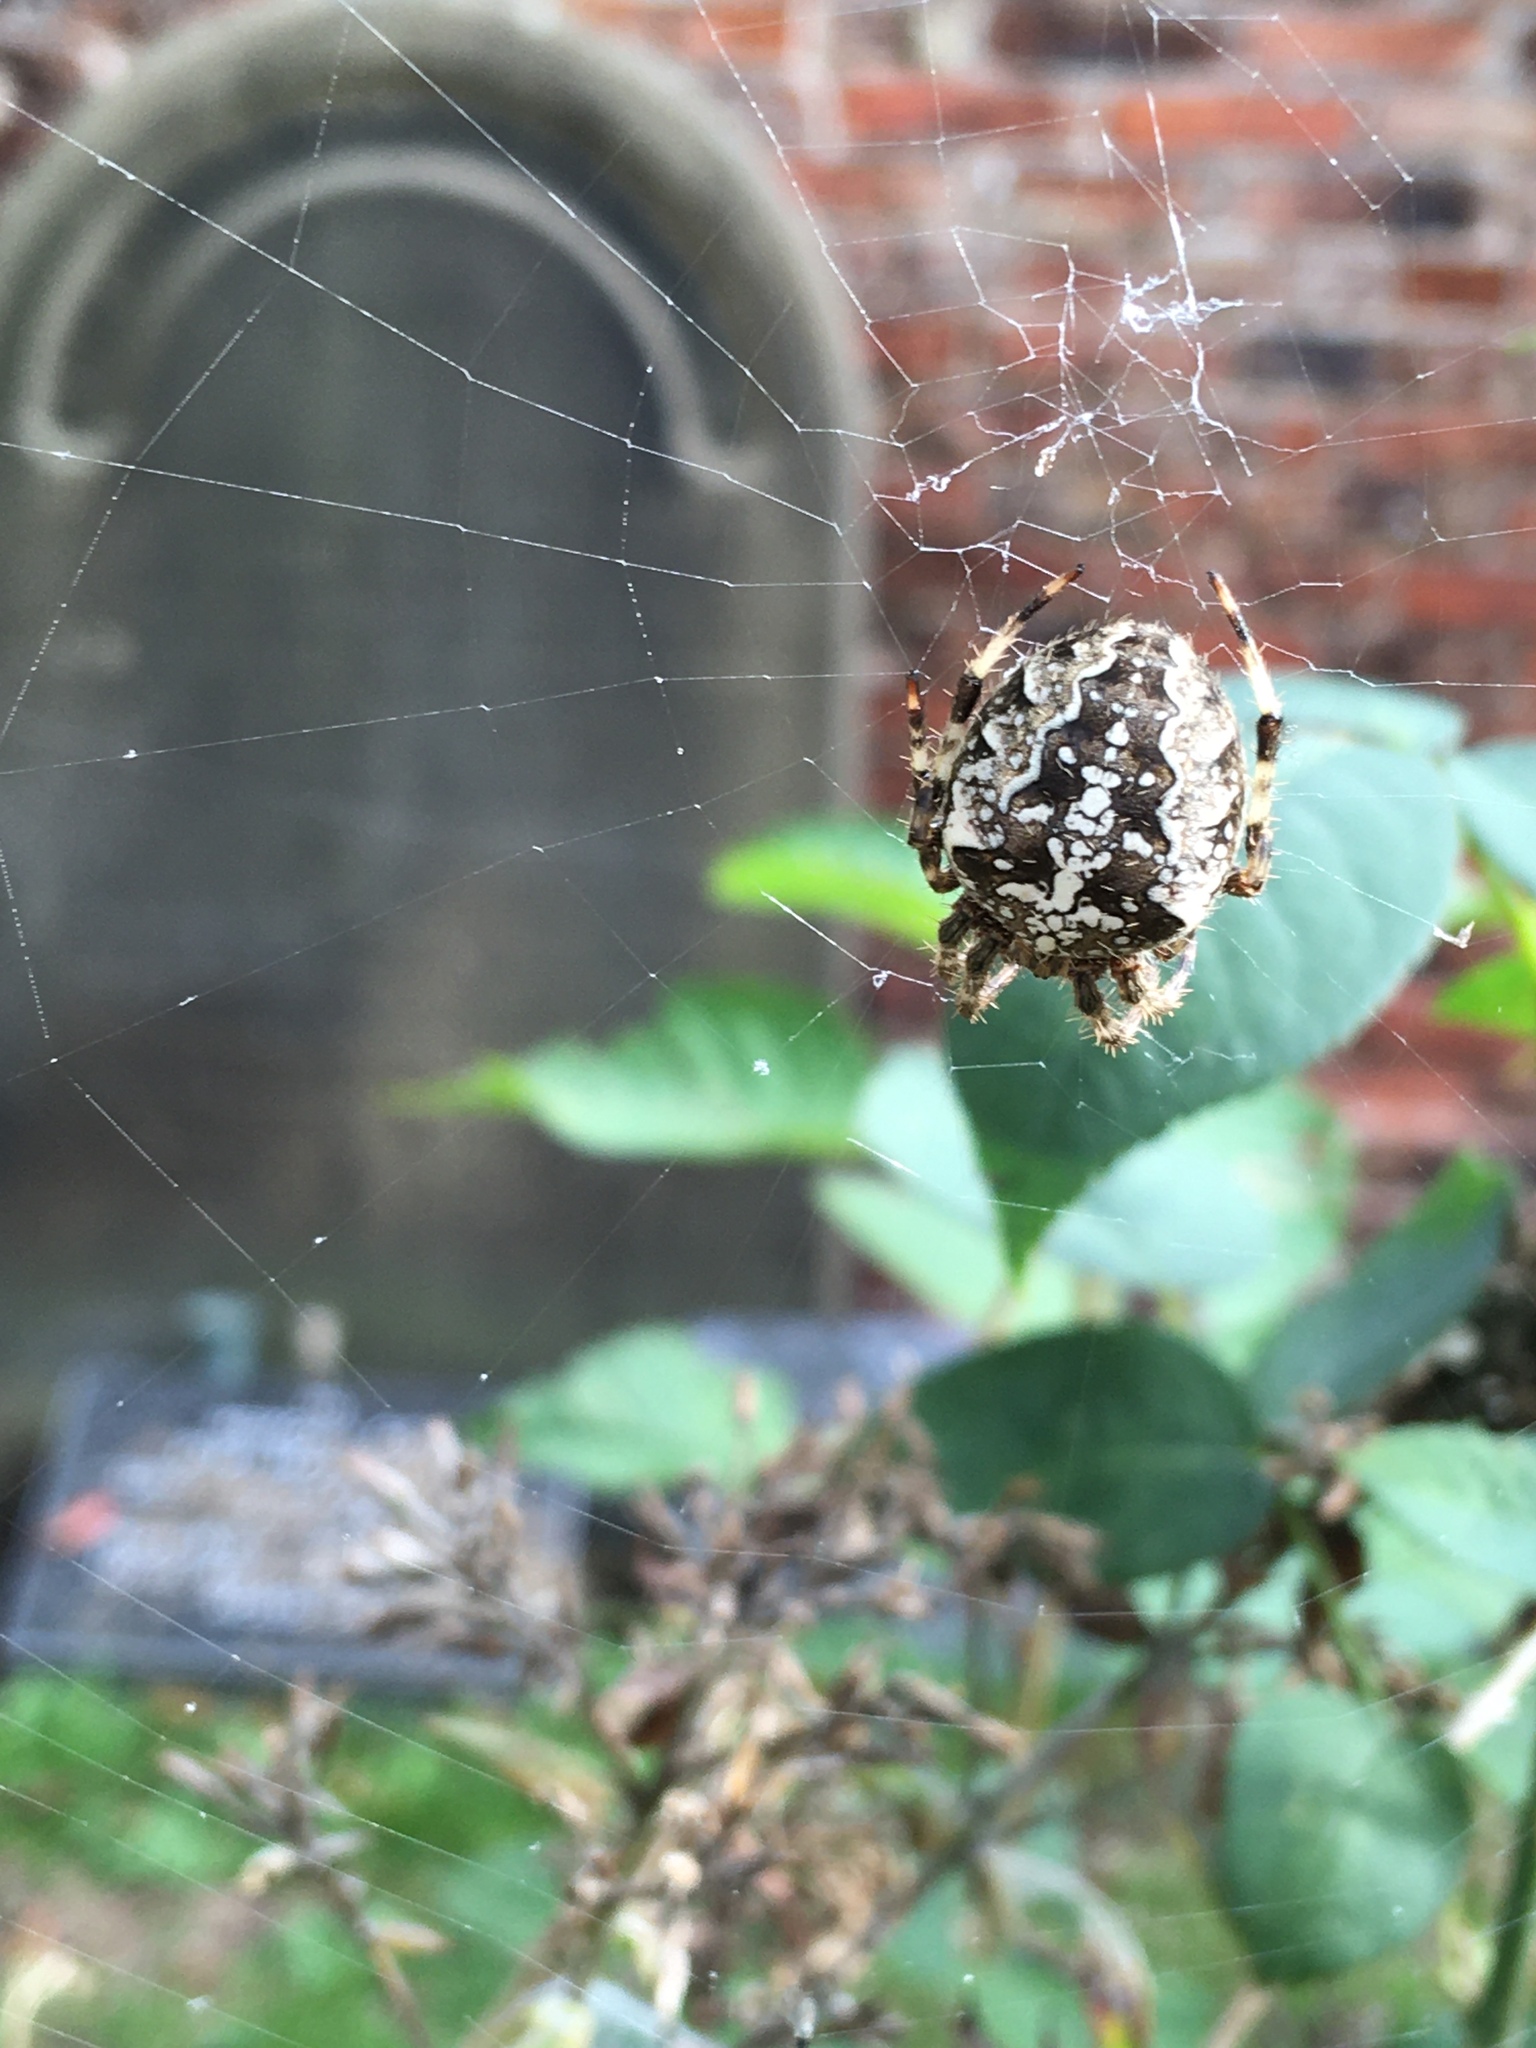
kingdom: Animalia
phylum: Arthropoda
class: Arachnida
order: Araneae
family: Araneidae
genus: Araneus
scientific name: Araneus diadematus
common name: Cross orbweaver
